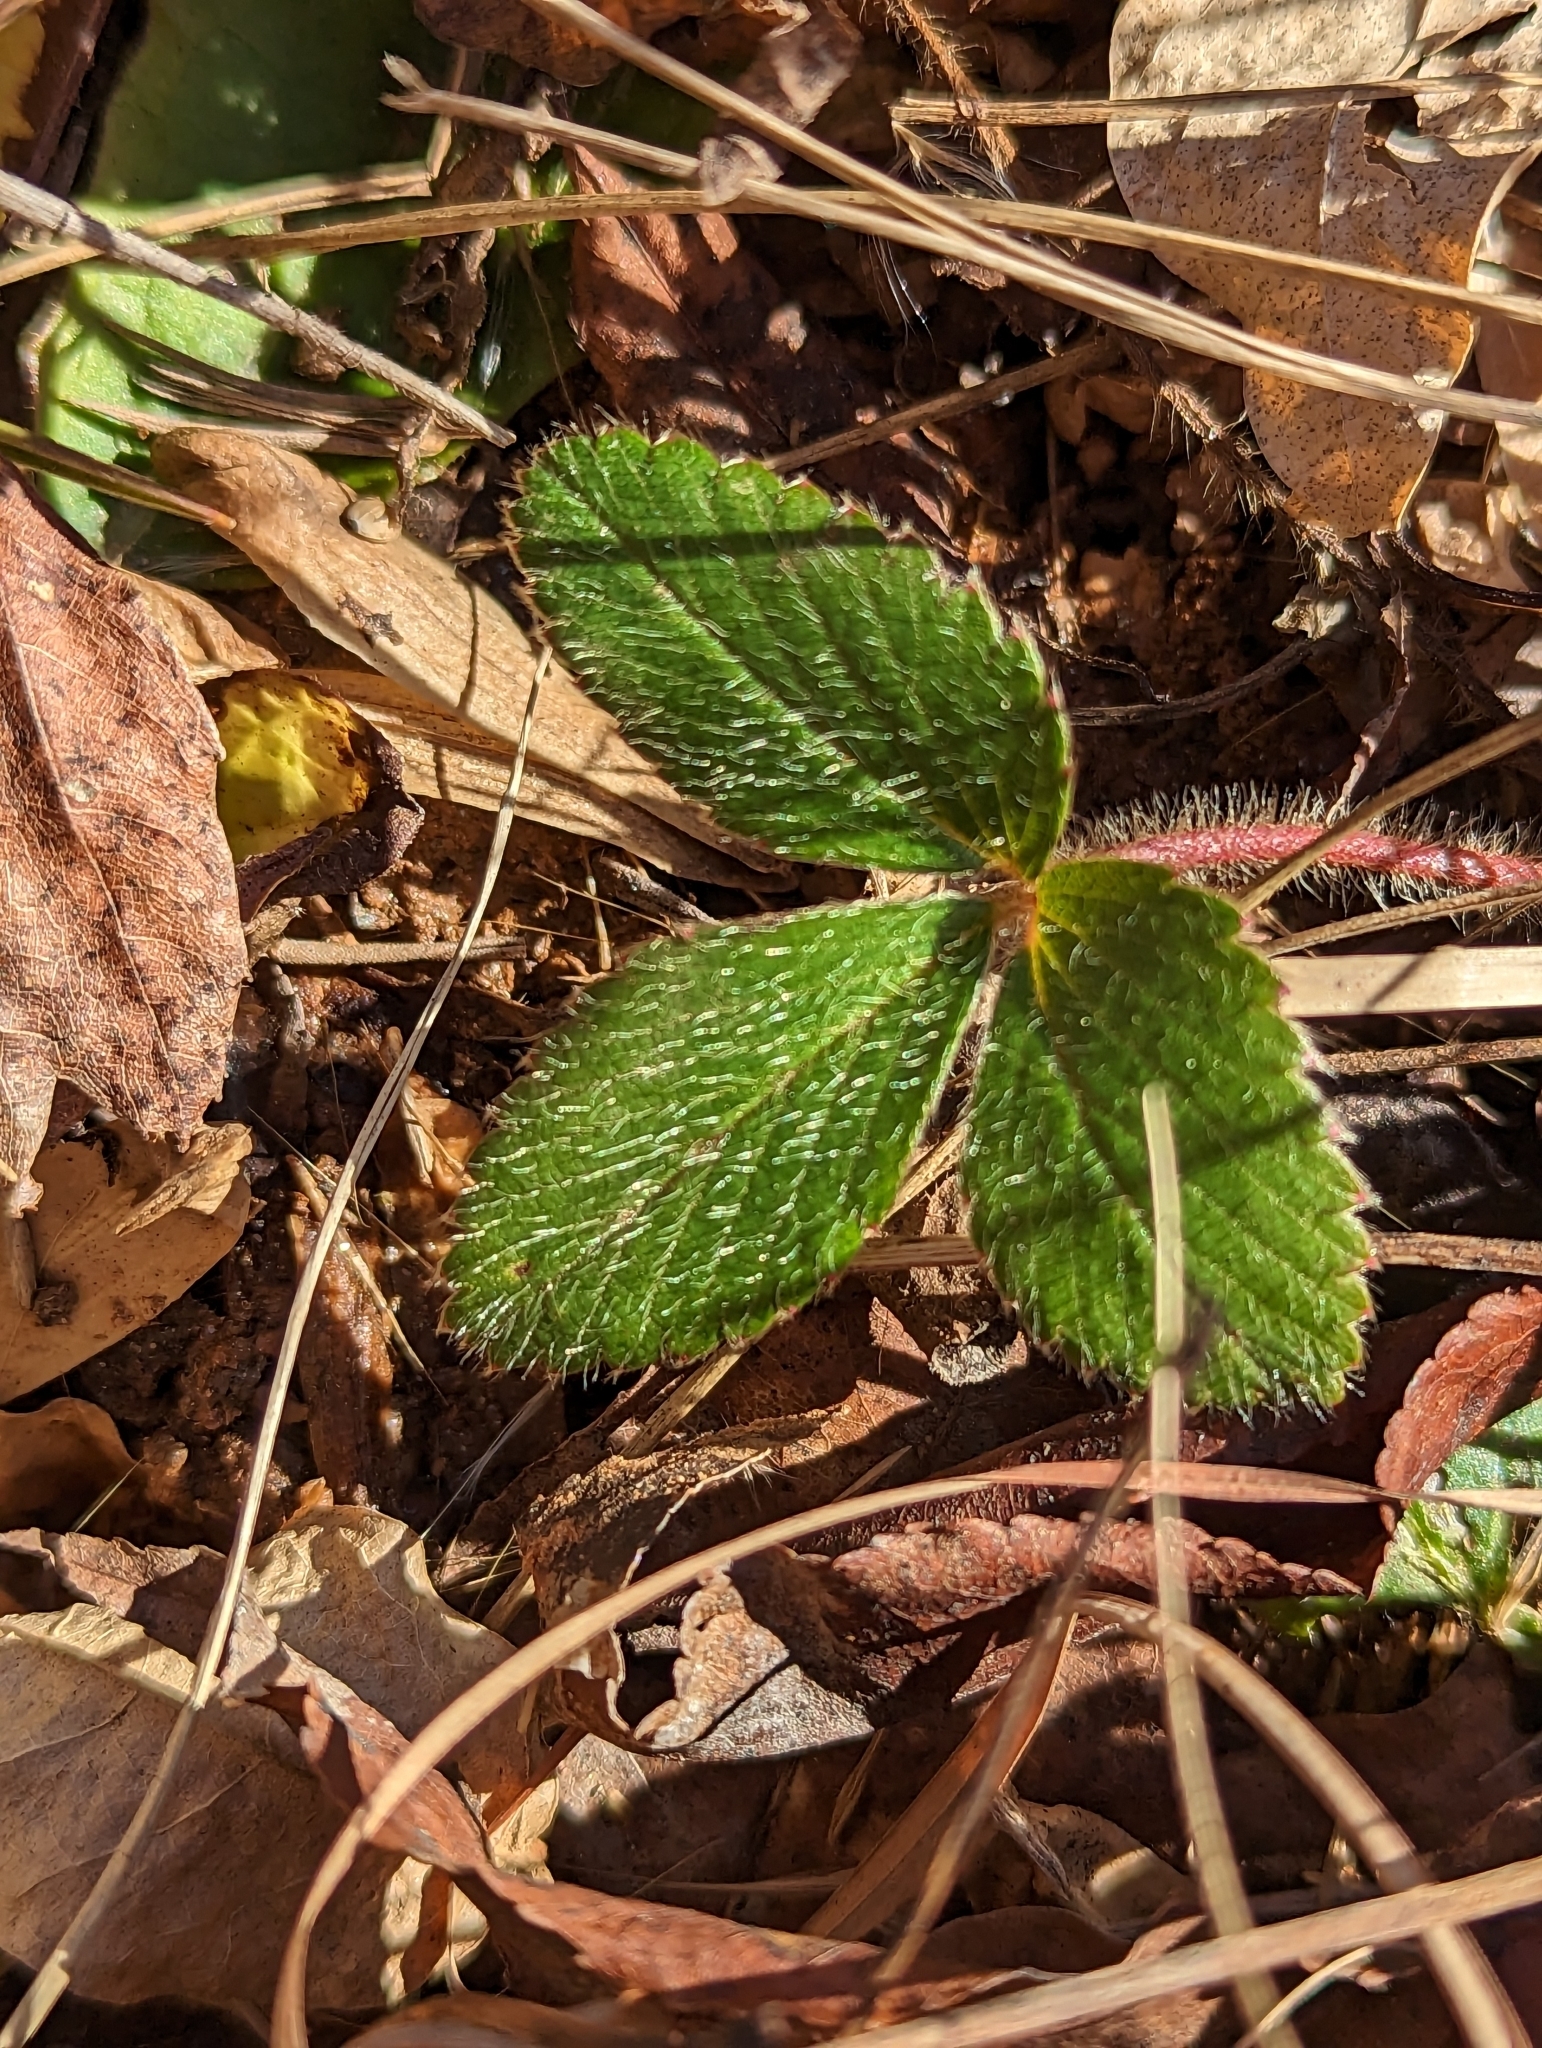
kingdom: Plantae
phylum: Tracheophyta
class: Magnoliopsida
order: Rosales
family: Rosaceae
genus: Fragaria
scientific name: Fragaria virginiana
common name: Thickleaved wild strawberry
